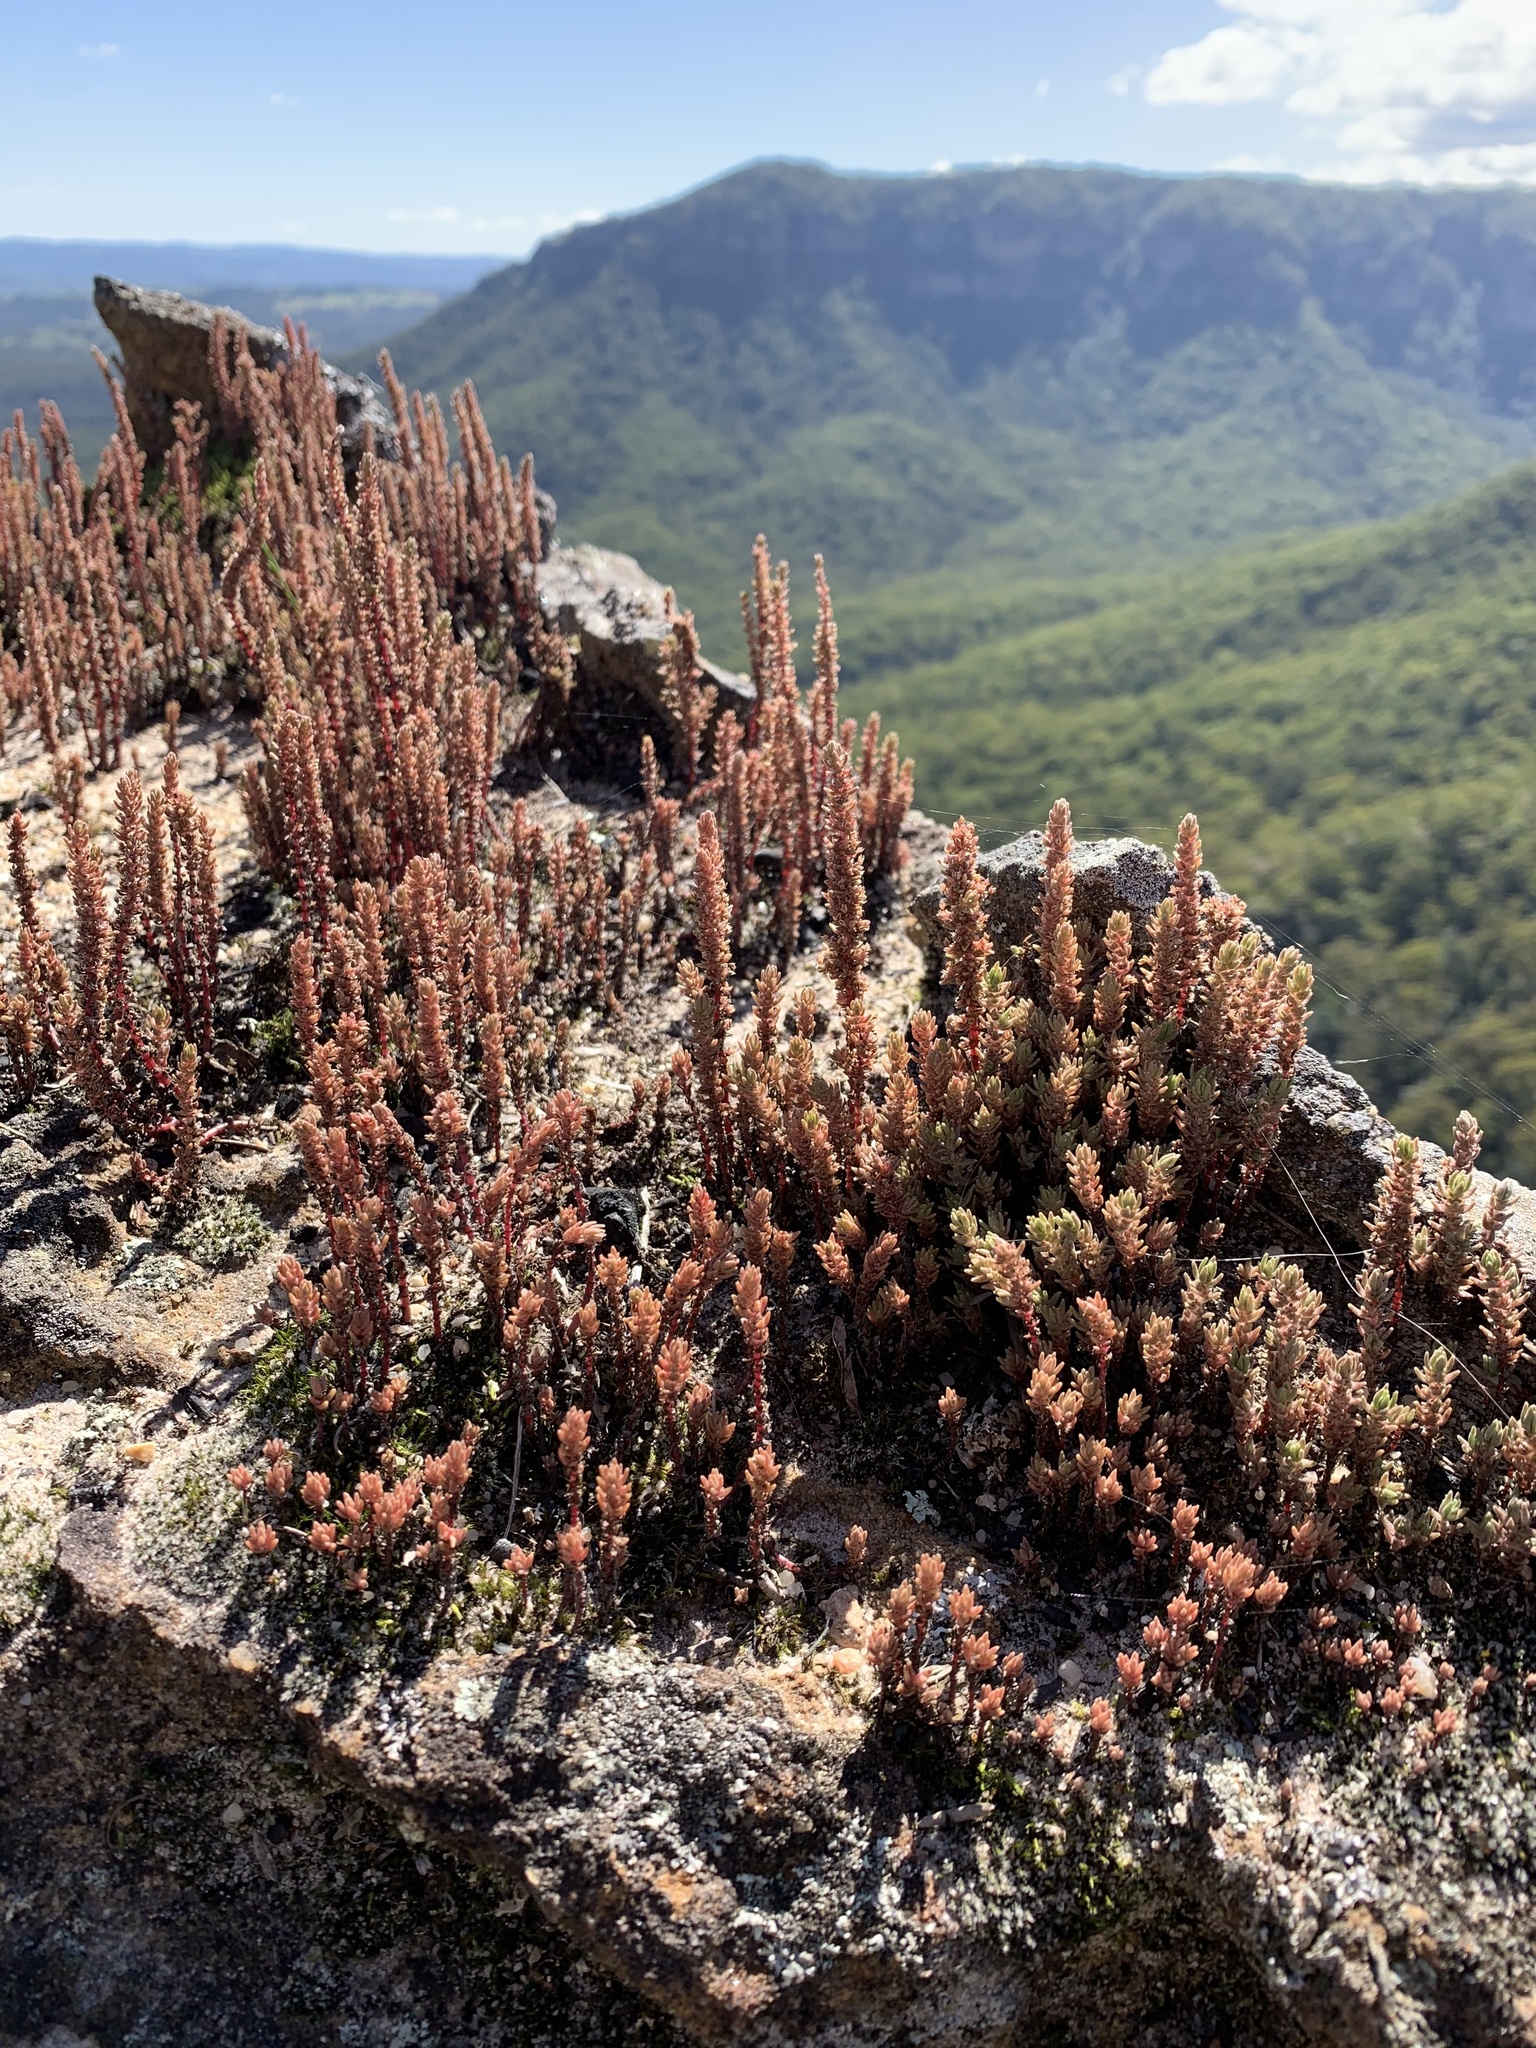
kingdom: Plantae
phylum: Tracheophyta
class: Magnoliopsida
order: Saxifragales
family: Crassulaceae
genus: Crassula
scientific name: Crassula sieberiana
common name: Siberian pygmyweed
